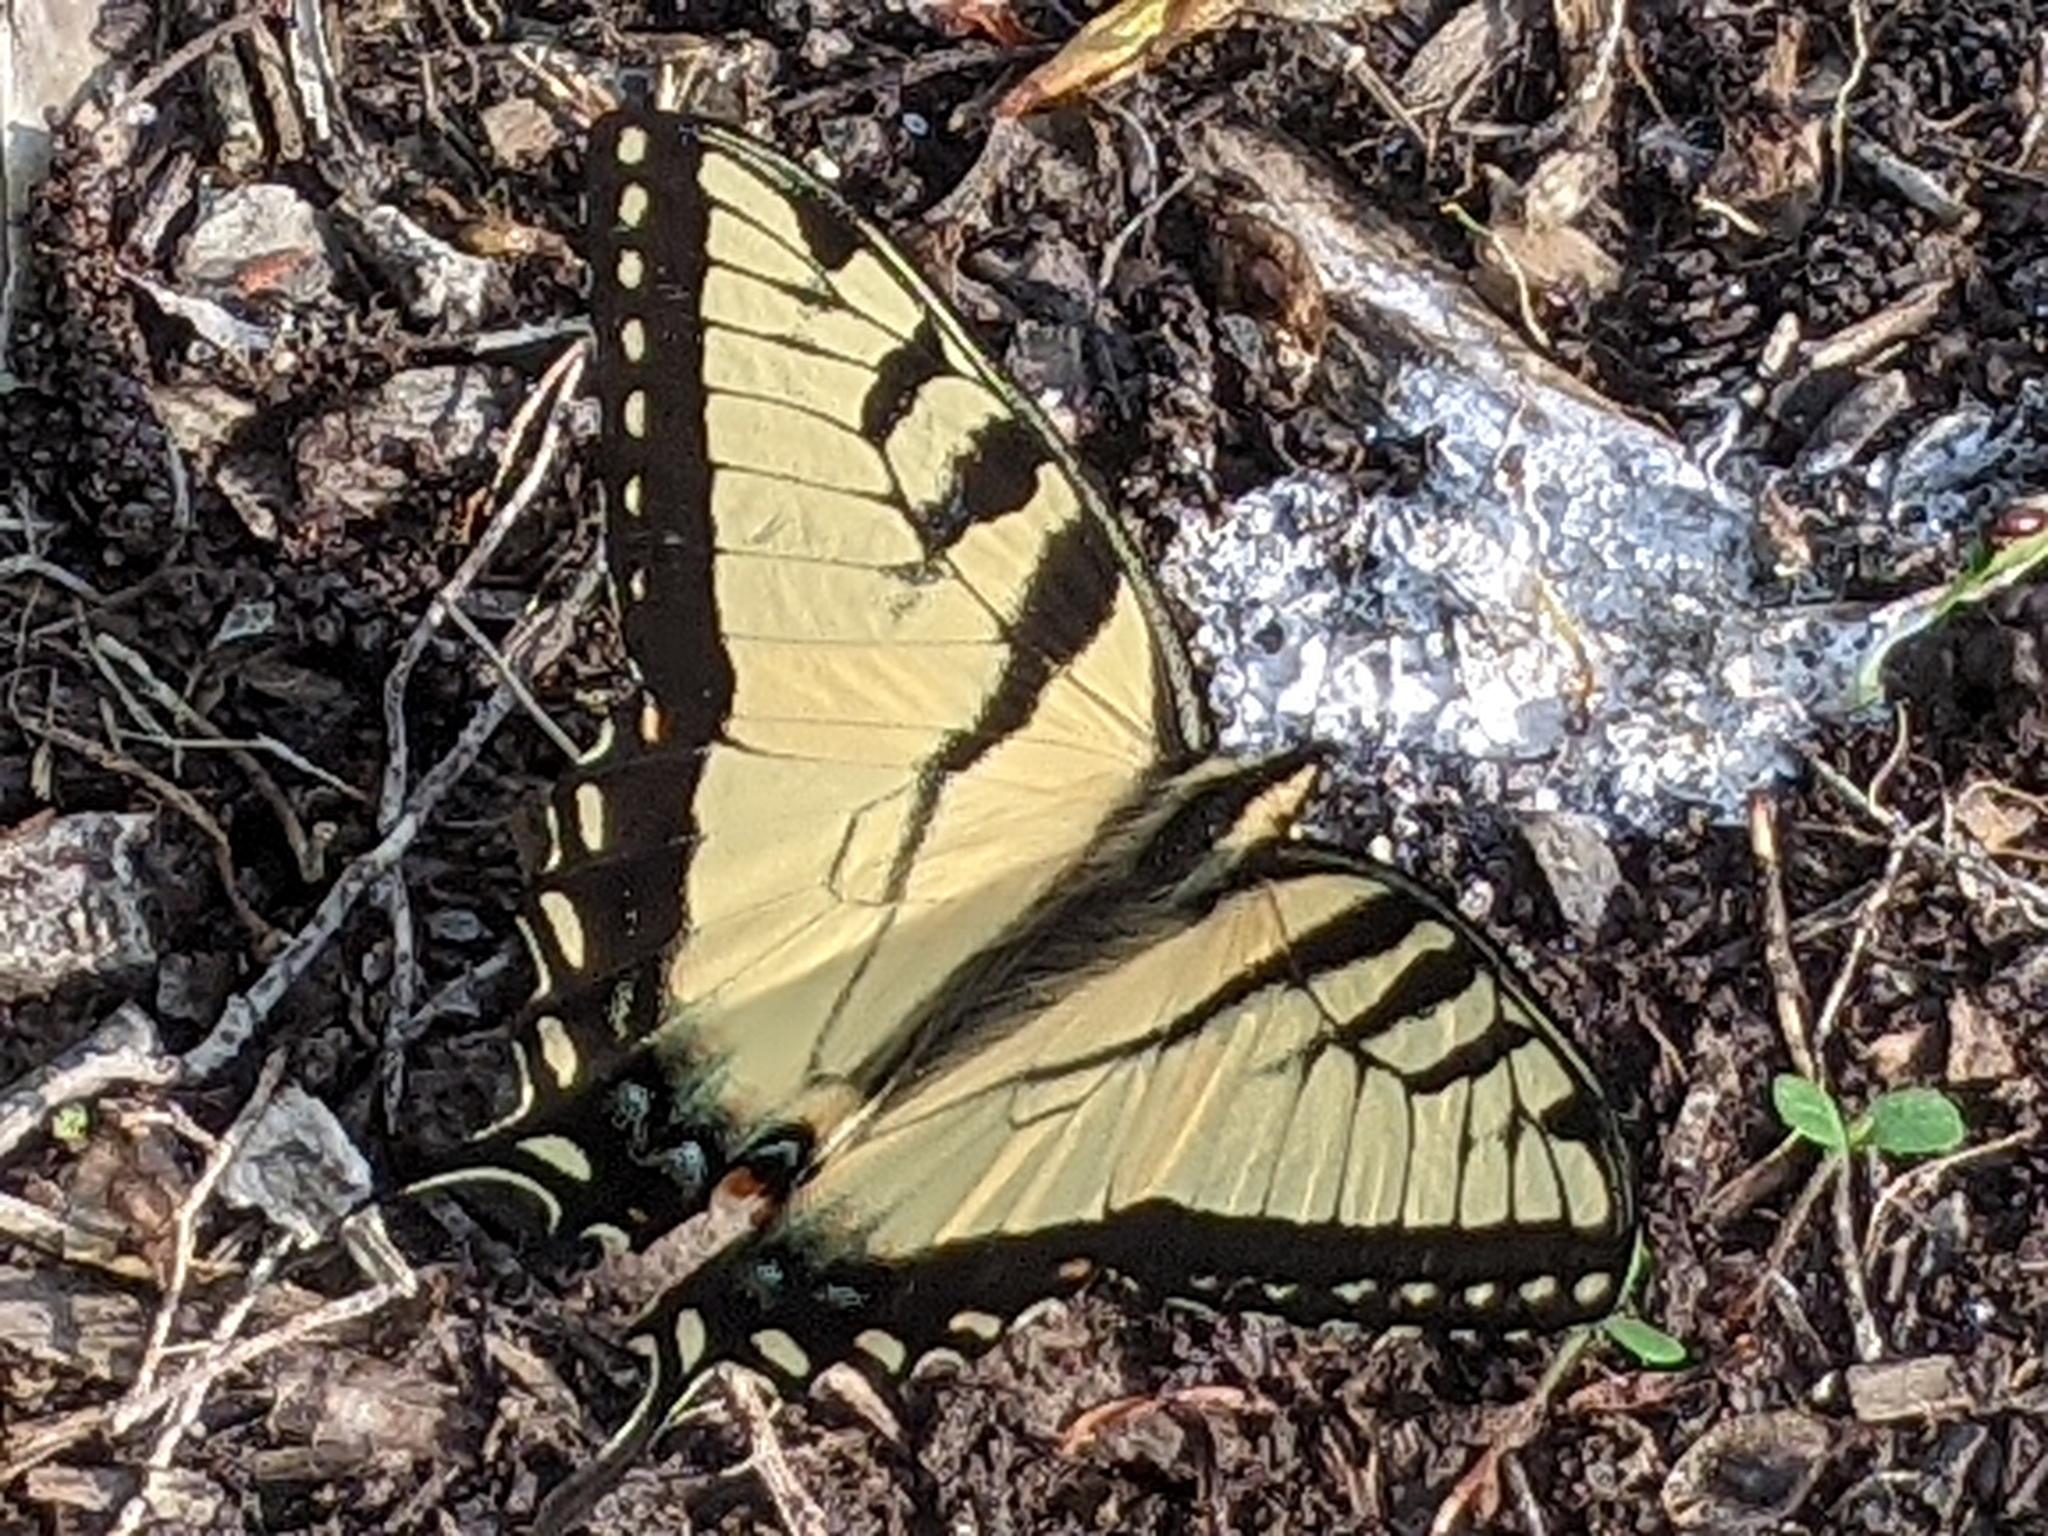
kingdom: Animalia
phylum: Arthropoda
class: Insecta
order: Lepidoptera
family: Papilionidae
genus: Papilio
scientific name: Papilio glaucus
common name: Tiger swallowtail
